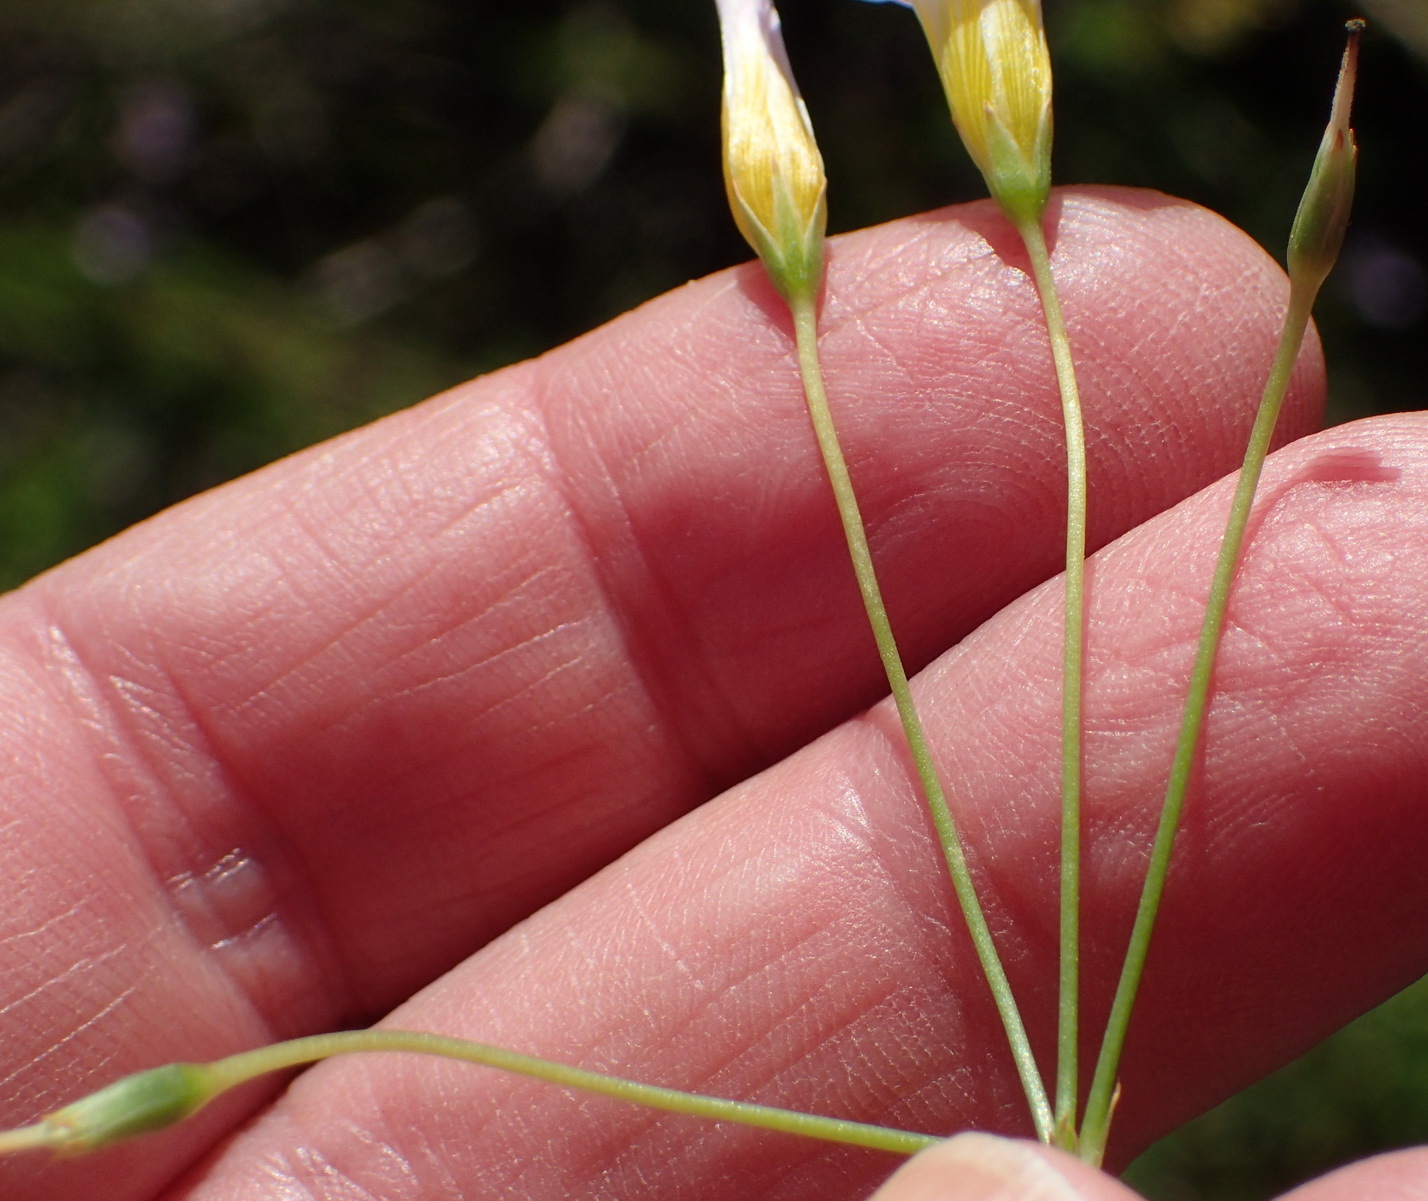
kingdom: Plantae
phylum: Tracheophyta
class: Magnoliopsida
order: Oxalidales
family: Oxalidaceae
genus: Oxalis
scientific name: Oxalis caprina
